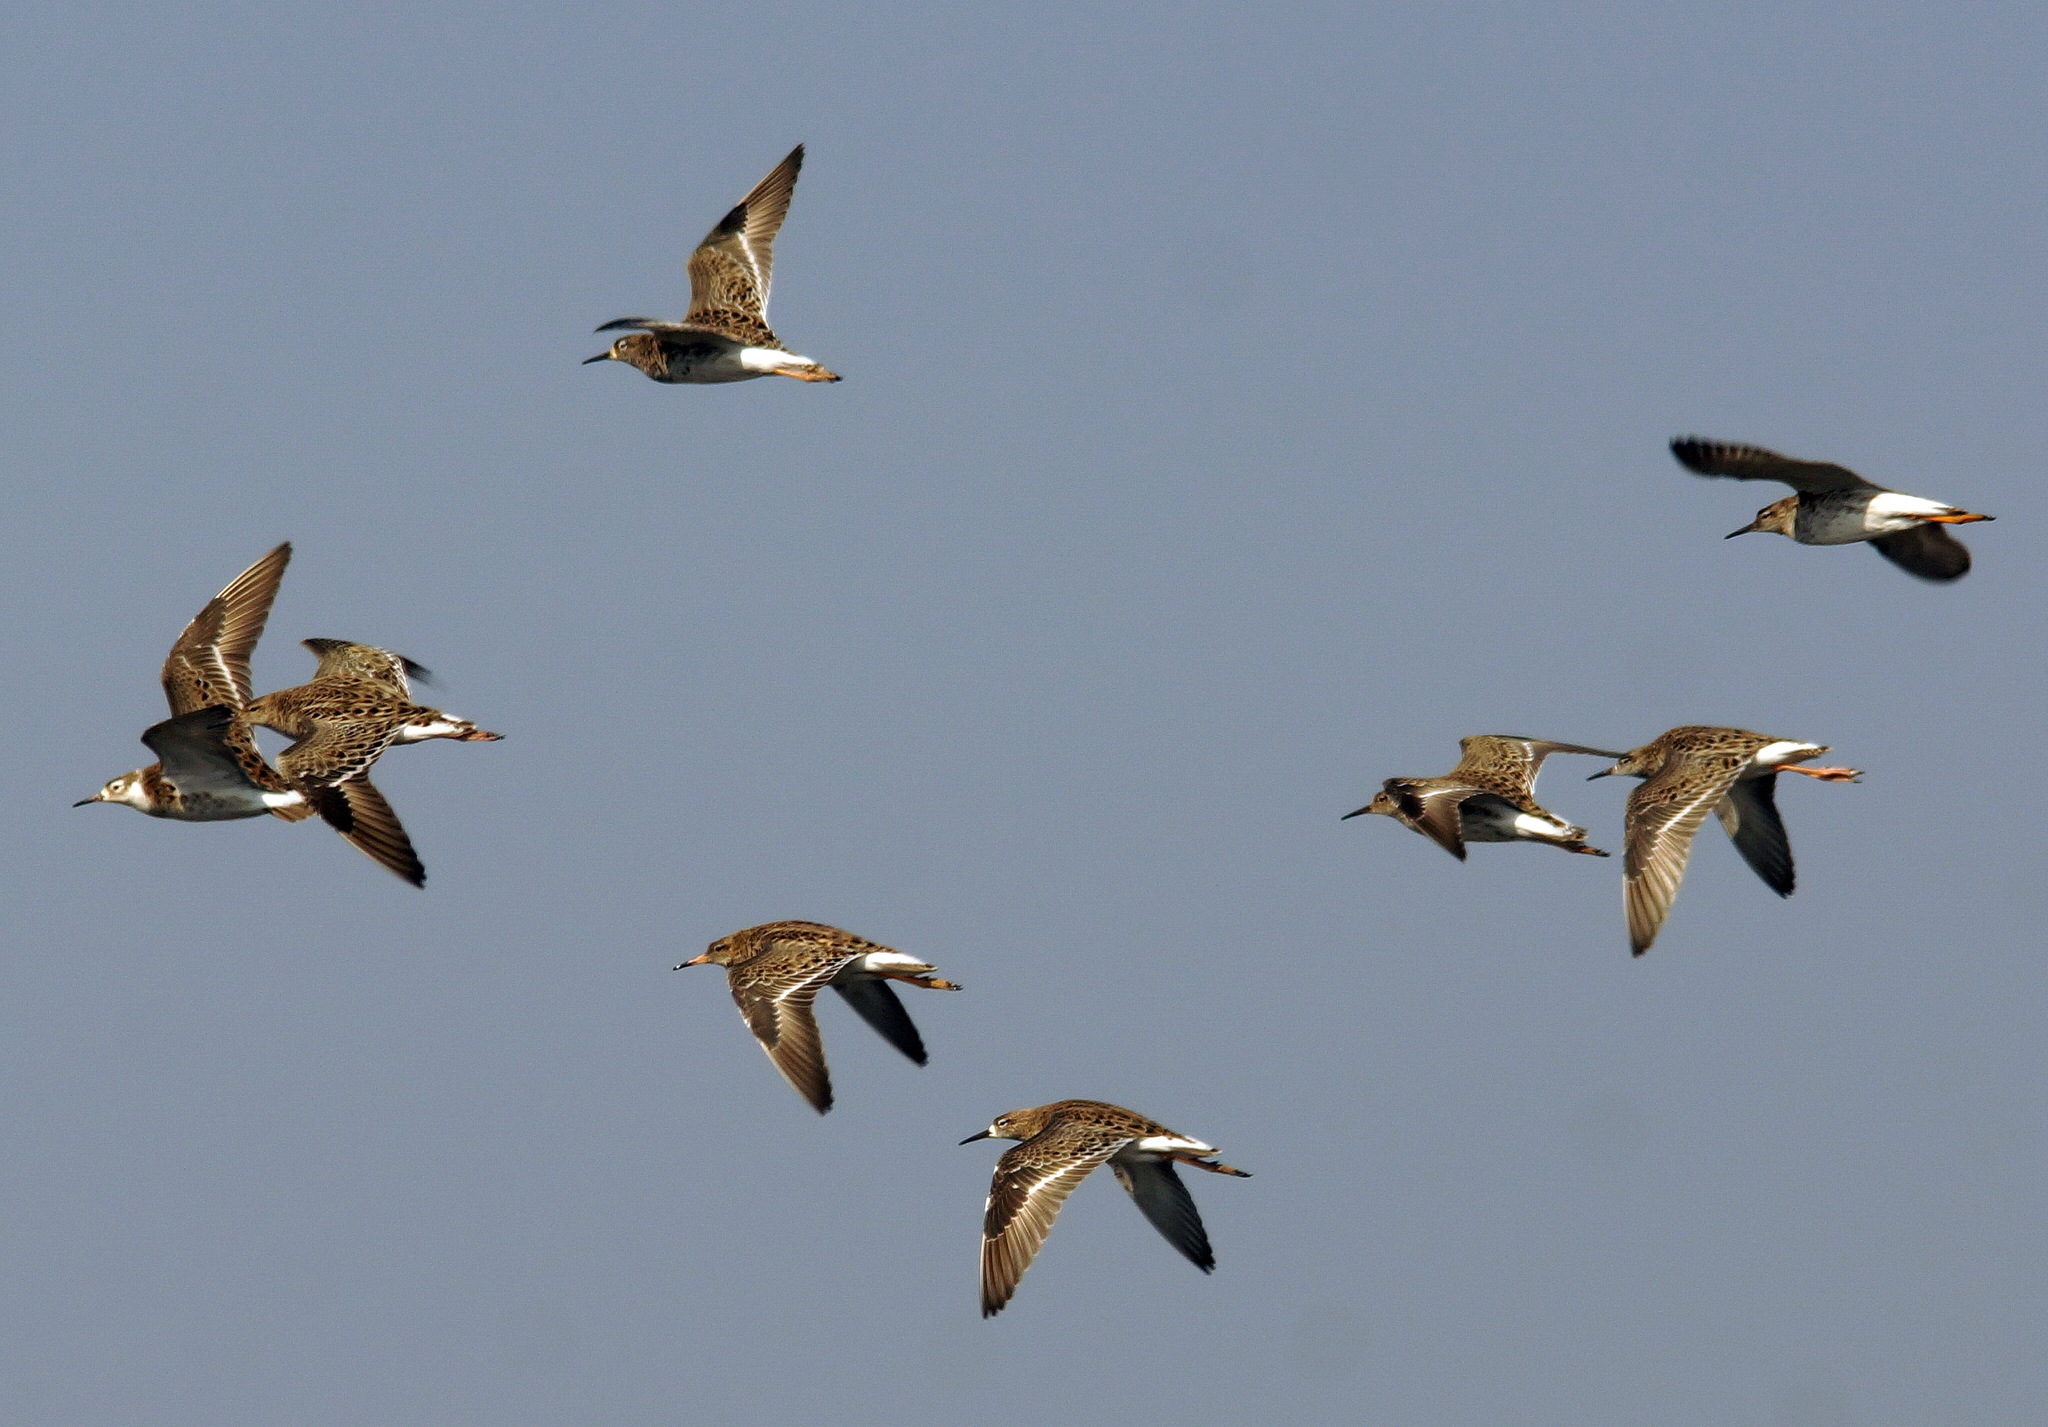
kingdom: Animalia
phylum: Chordata
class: Aves
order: Charadriiformes
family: Scolopacidae
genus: Calidris
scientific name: Calidris pugnax
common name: Ruff
